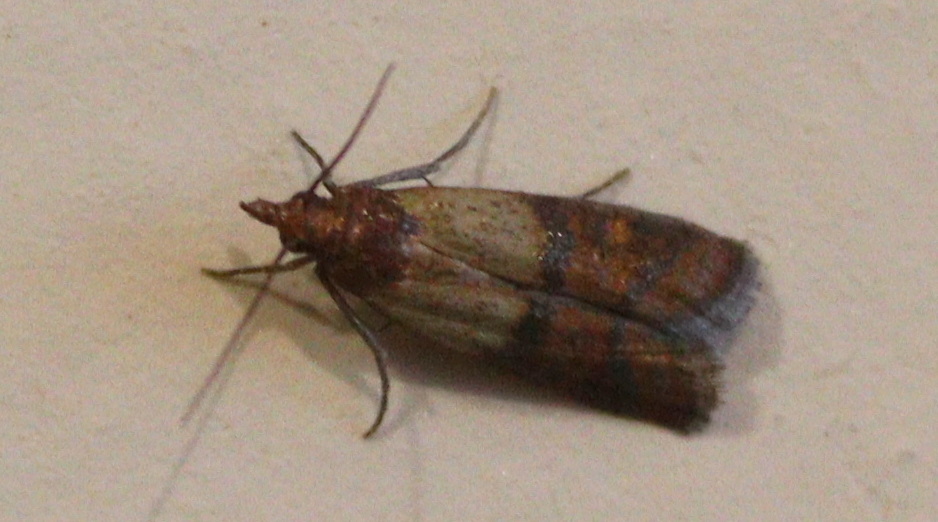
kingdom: Animalia
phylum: Arthropoda
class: Insecta
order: Lepidoptera
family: Pyralidae
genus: Plodia
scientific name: Plodia interpunctella
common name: Indian meal moth
